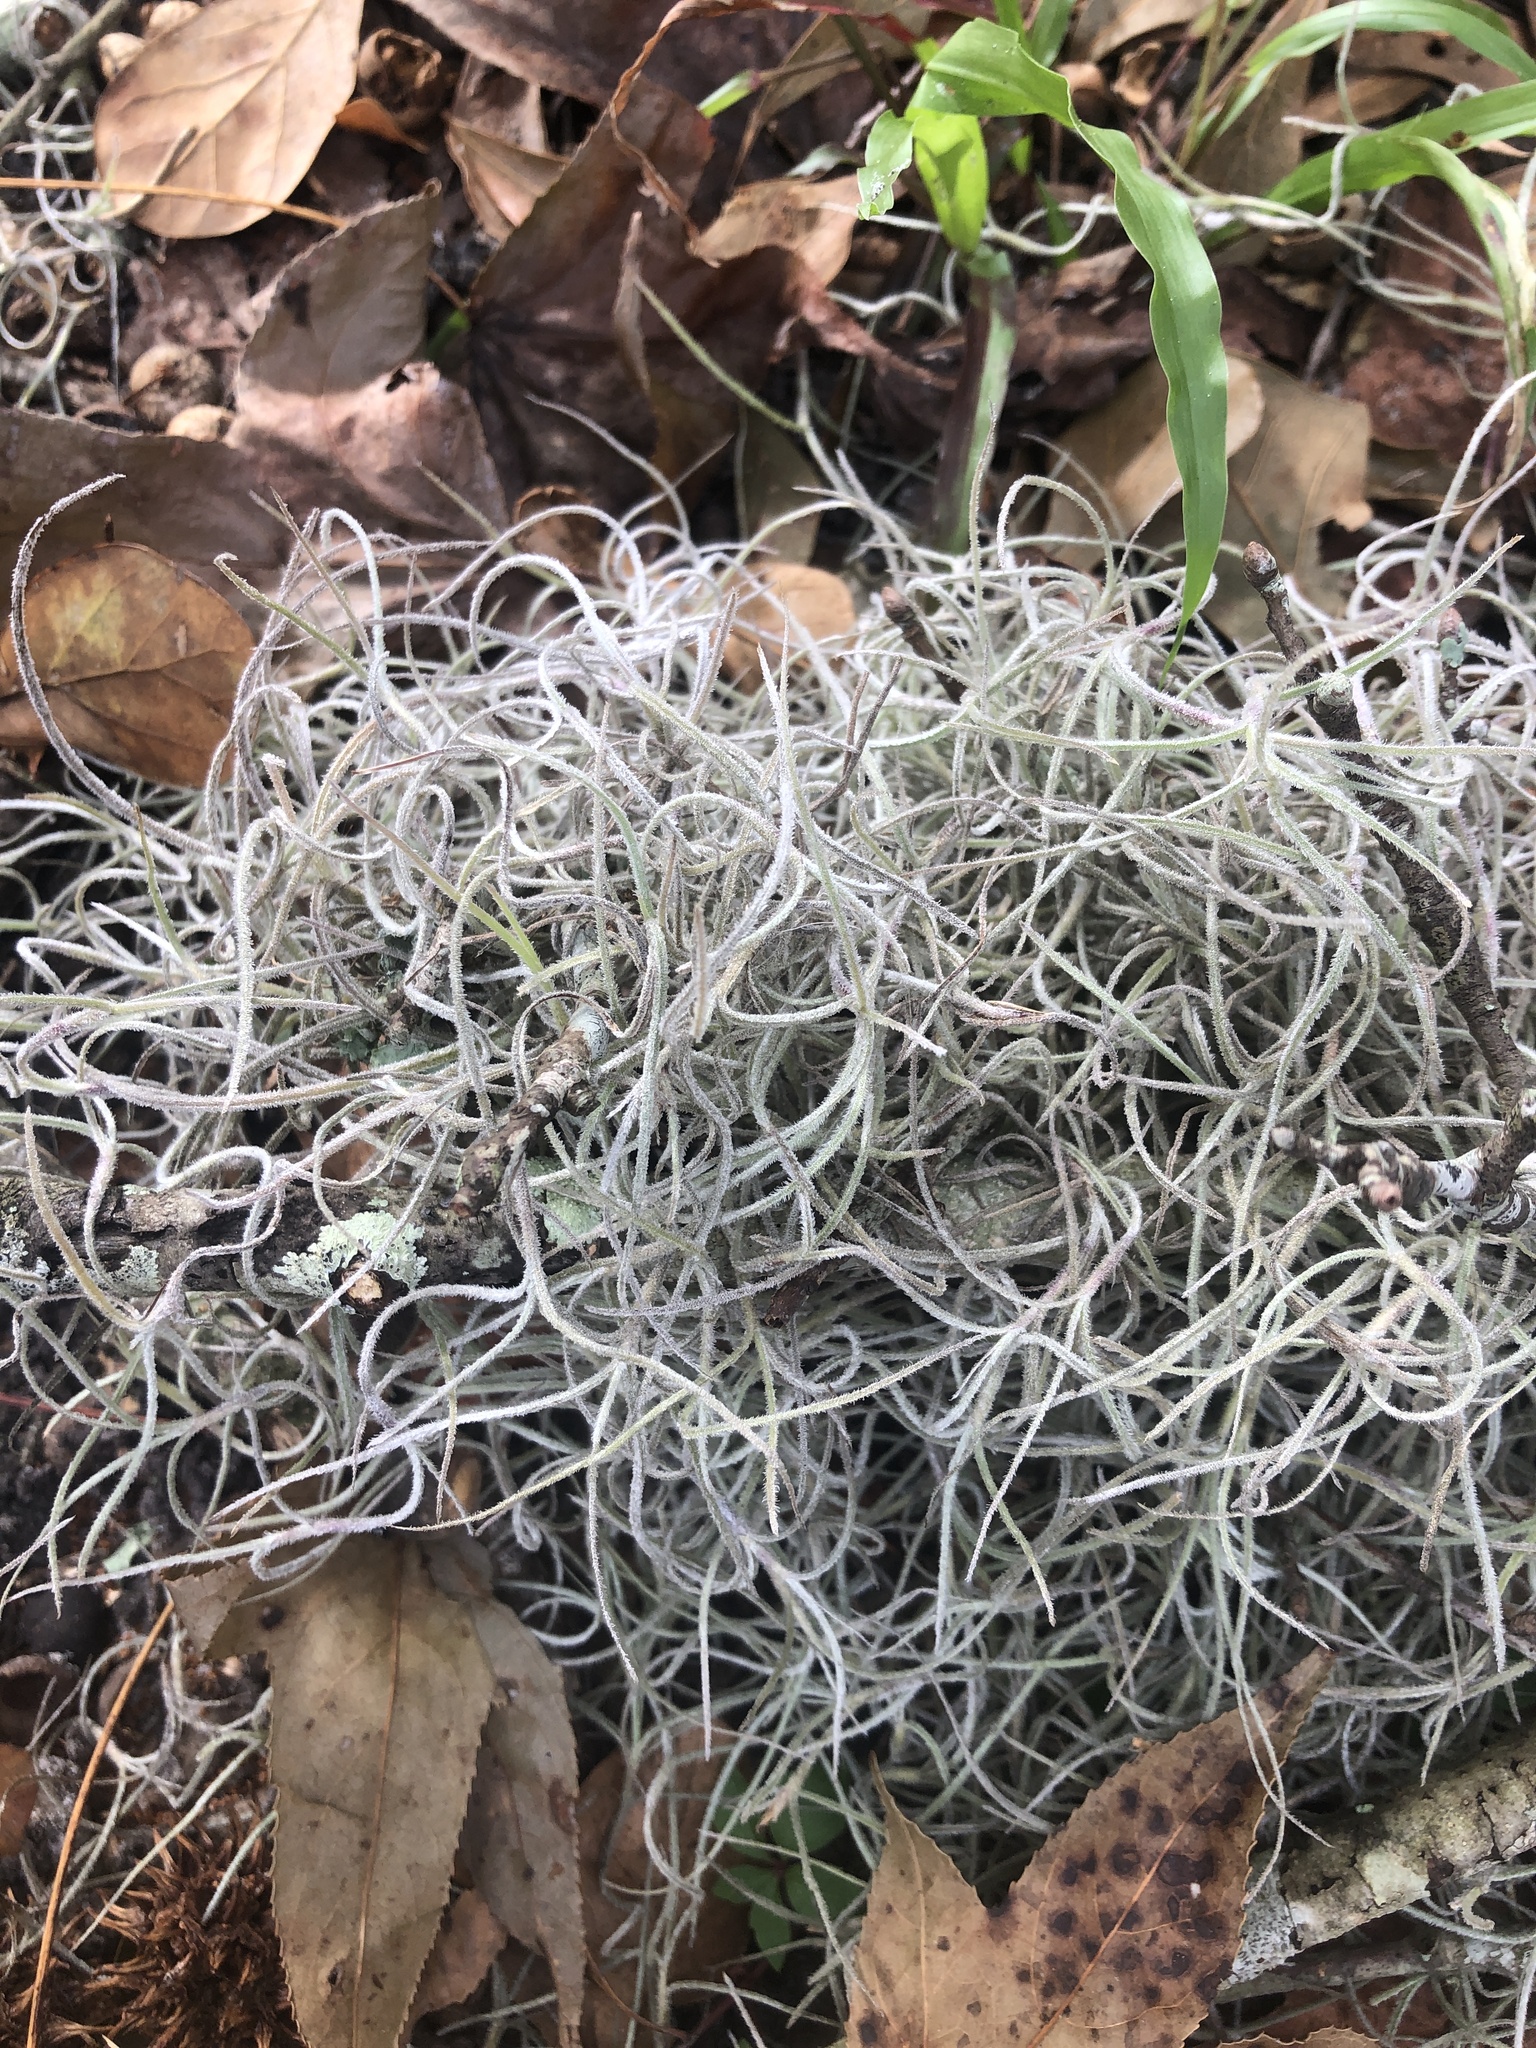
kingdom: Plantae
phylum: Tracheophyta
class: Liliopsida
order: Poales
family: Bromeliaceae
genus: Tillandsia
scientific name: Tillandsia usneoides
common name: Spanish moss
